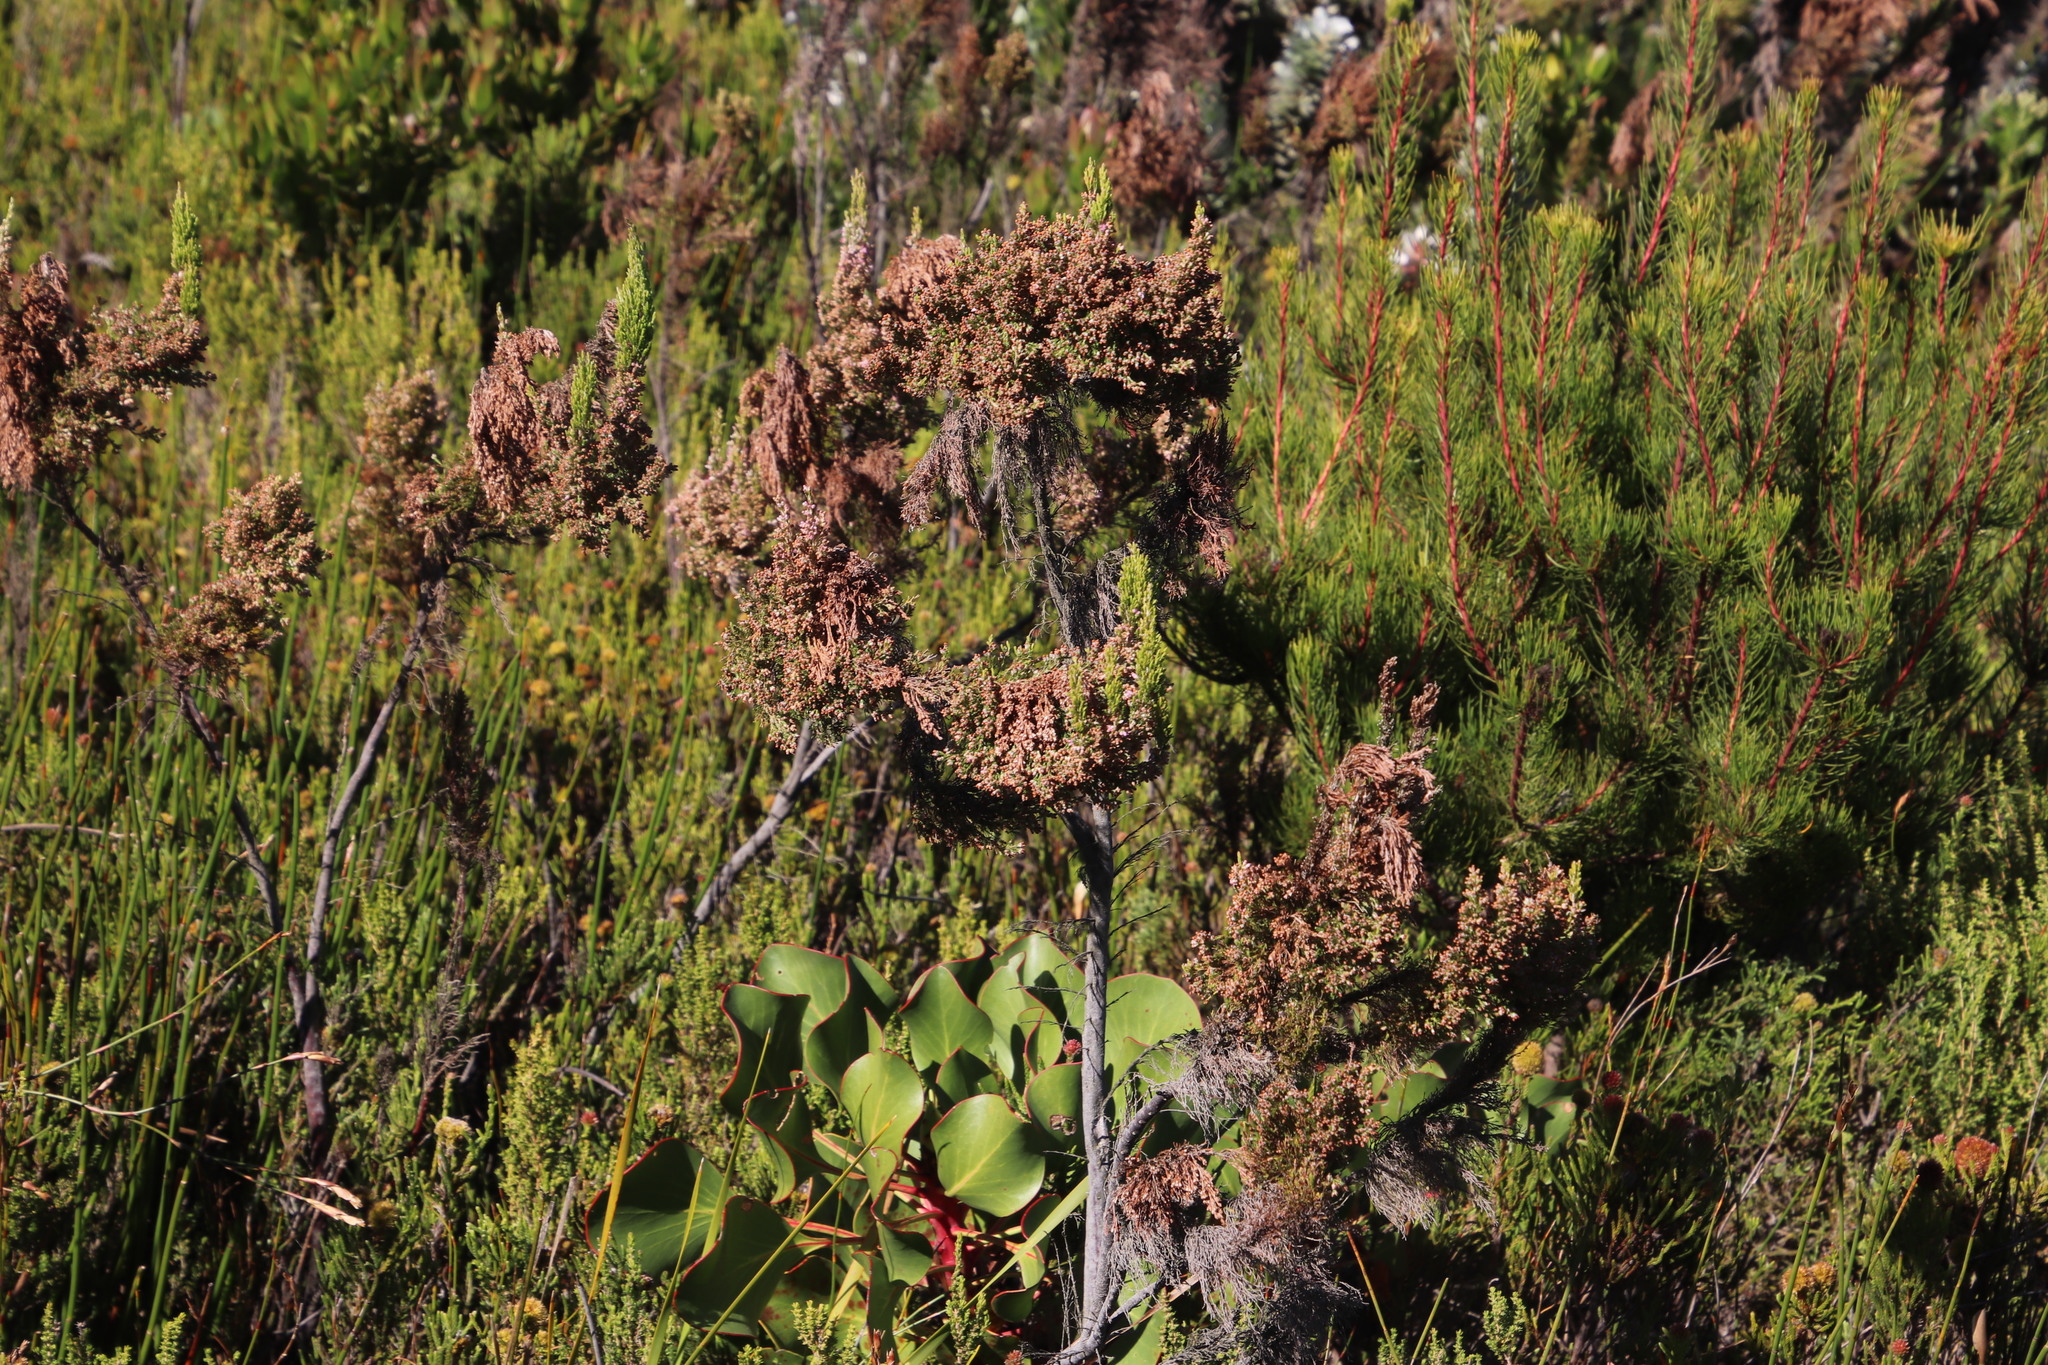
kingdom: Plantae
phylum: Tracheophyta
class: Magnoliopsida
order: Ericales
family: Ericaceae
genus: Erica
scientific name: Erica jacksoniana
